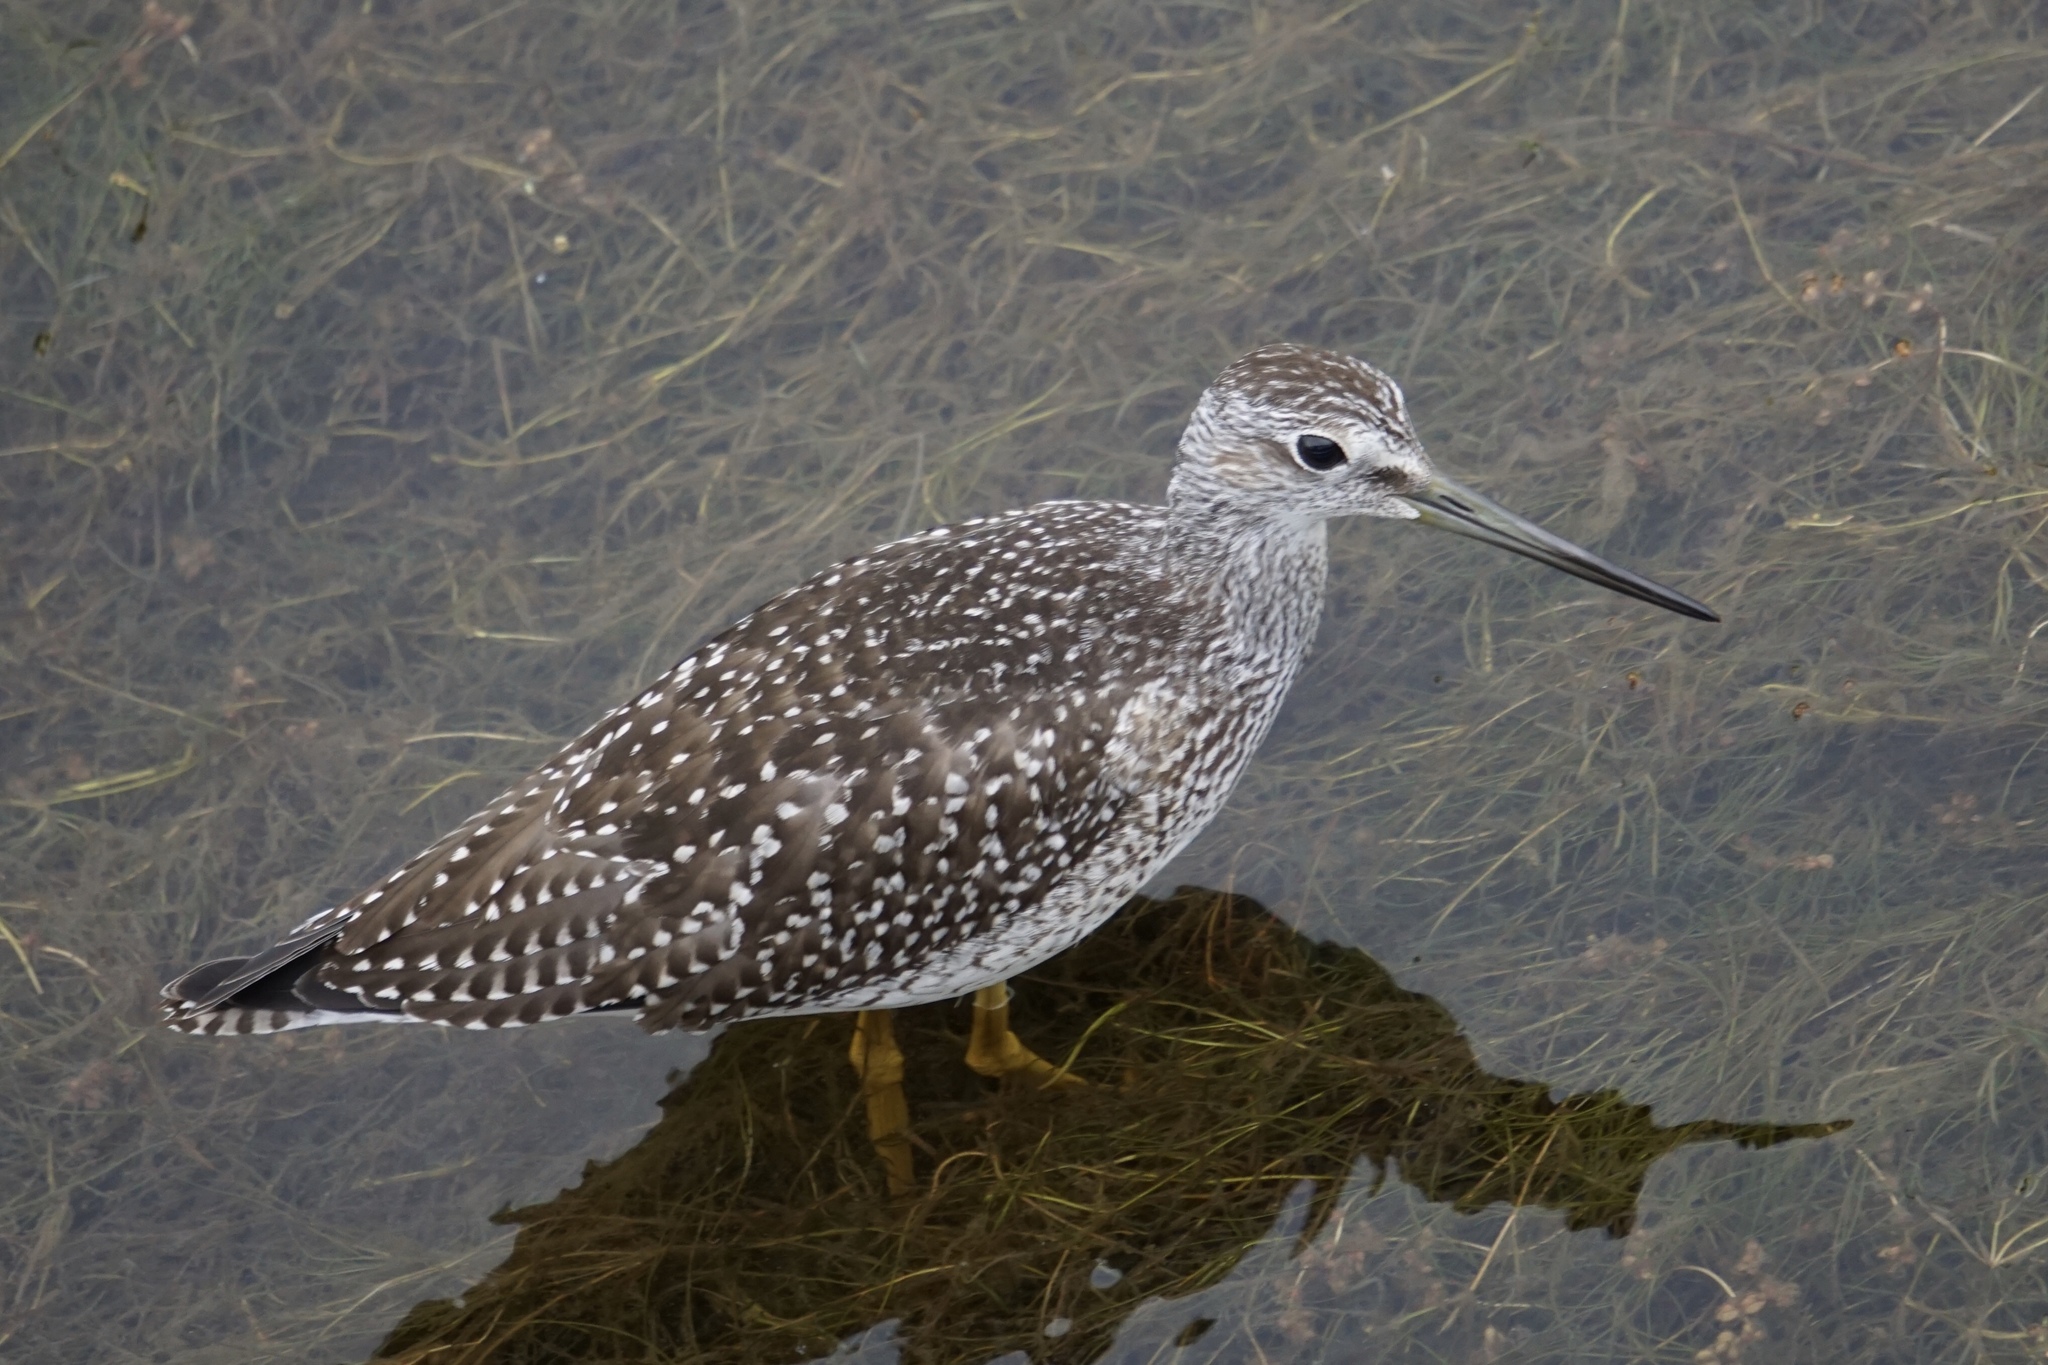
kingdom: Animalia
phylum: Chordata
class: Aves
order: Charadriiformes
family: Scolopacidae
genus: Tringa
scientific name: Tringa melanoleuca
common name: Greater yellowlegs
